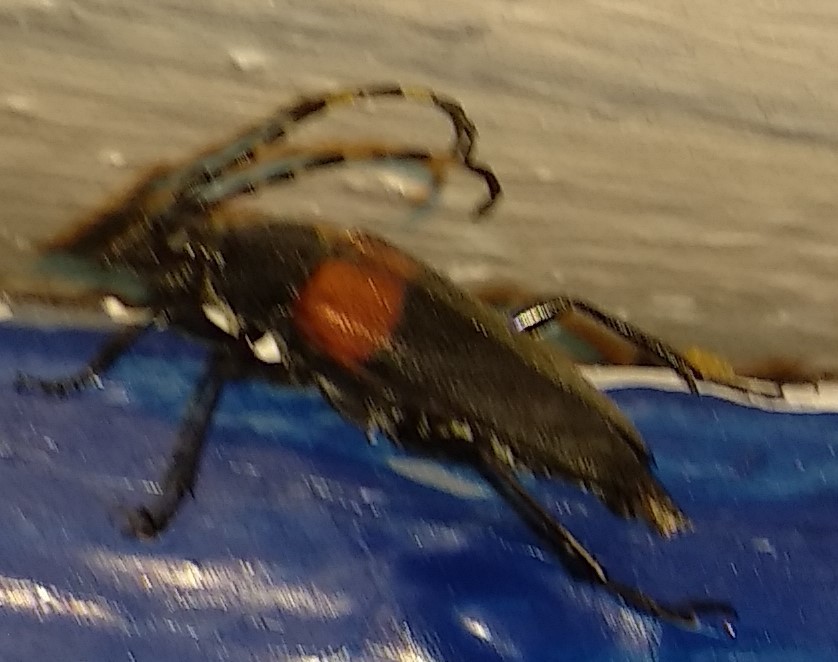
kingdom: Animalia
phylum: Arthropoda
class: Insecta
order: Coleoptera
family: Cerambycidae
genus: Stictoleptura
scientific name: Stictoleptura canadensis
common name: Red-shouldered pine borer
